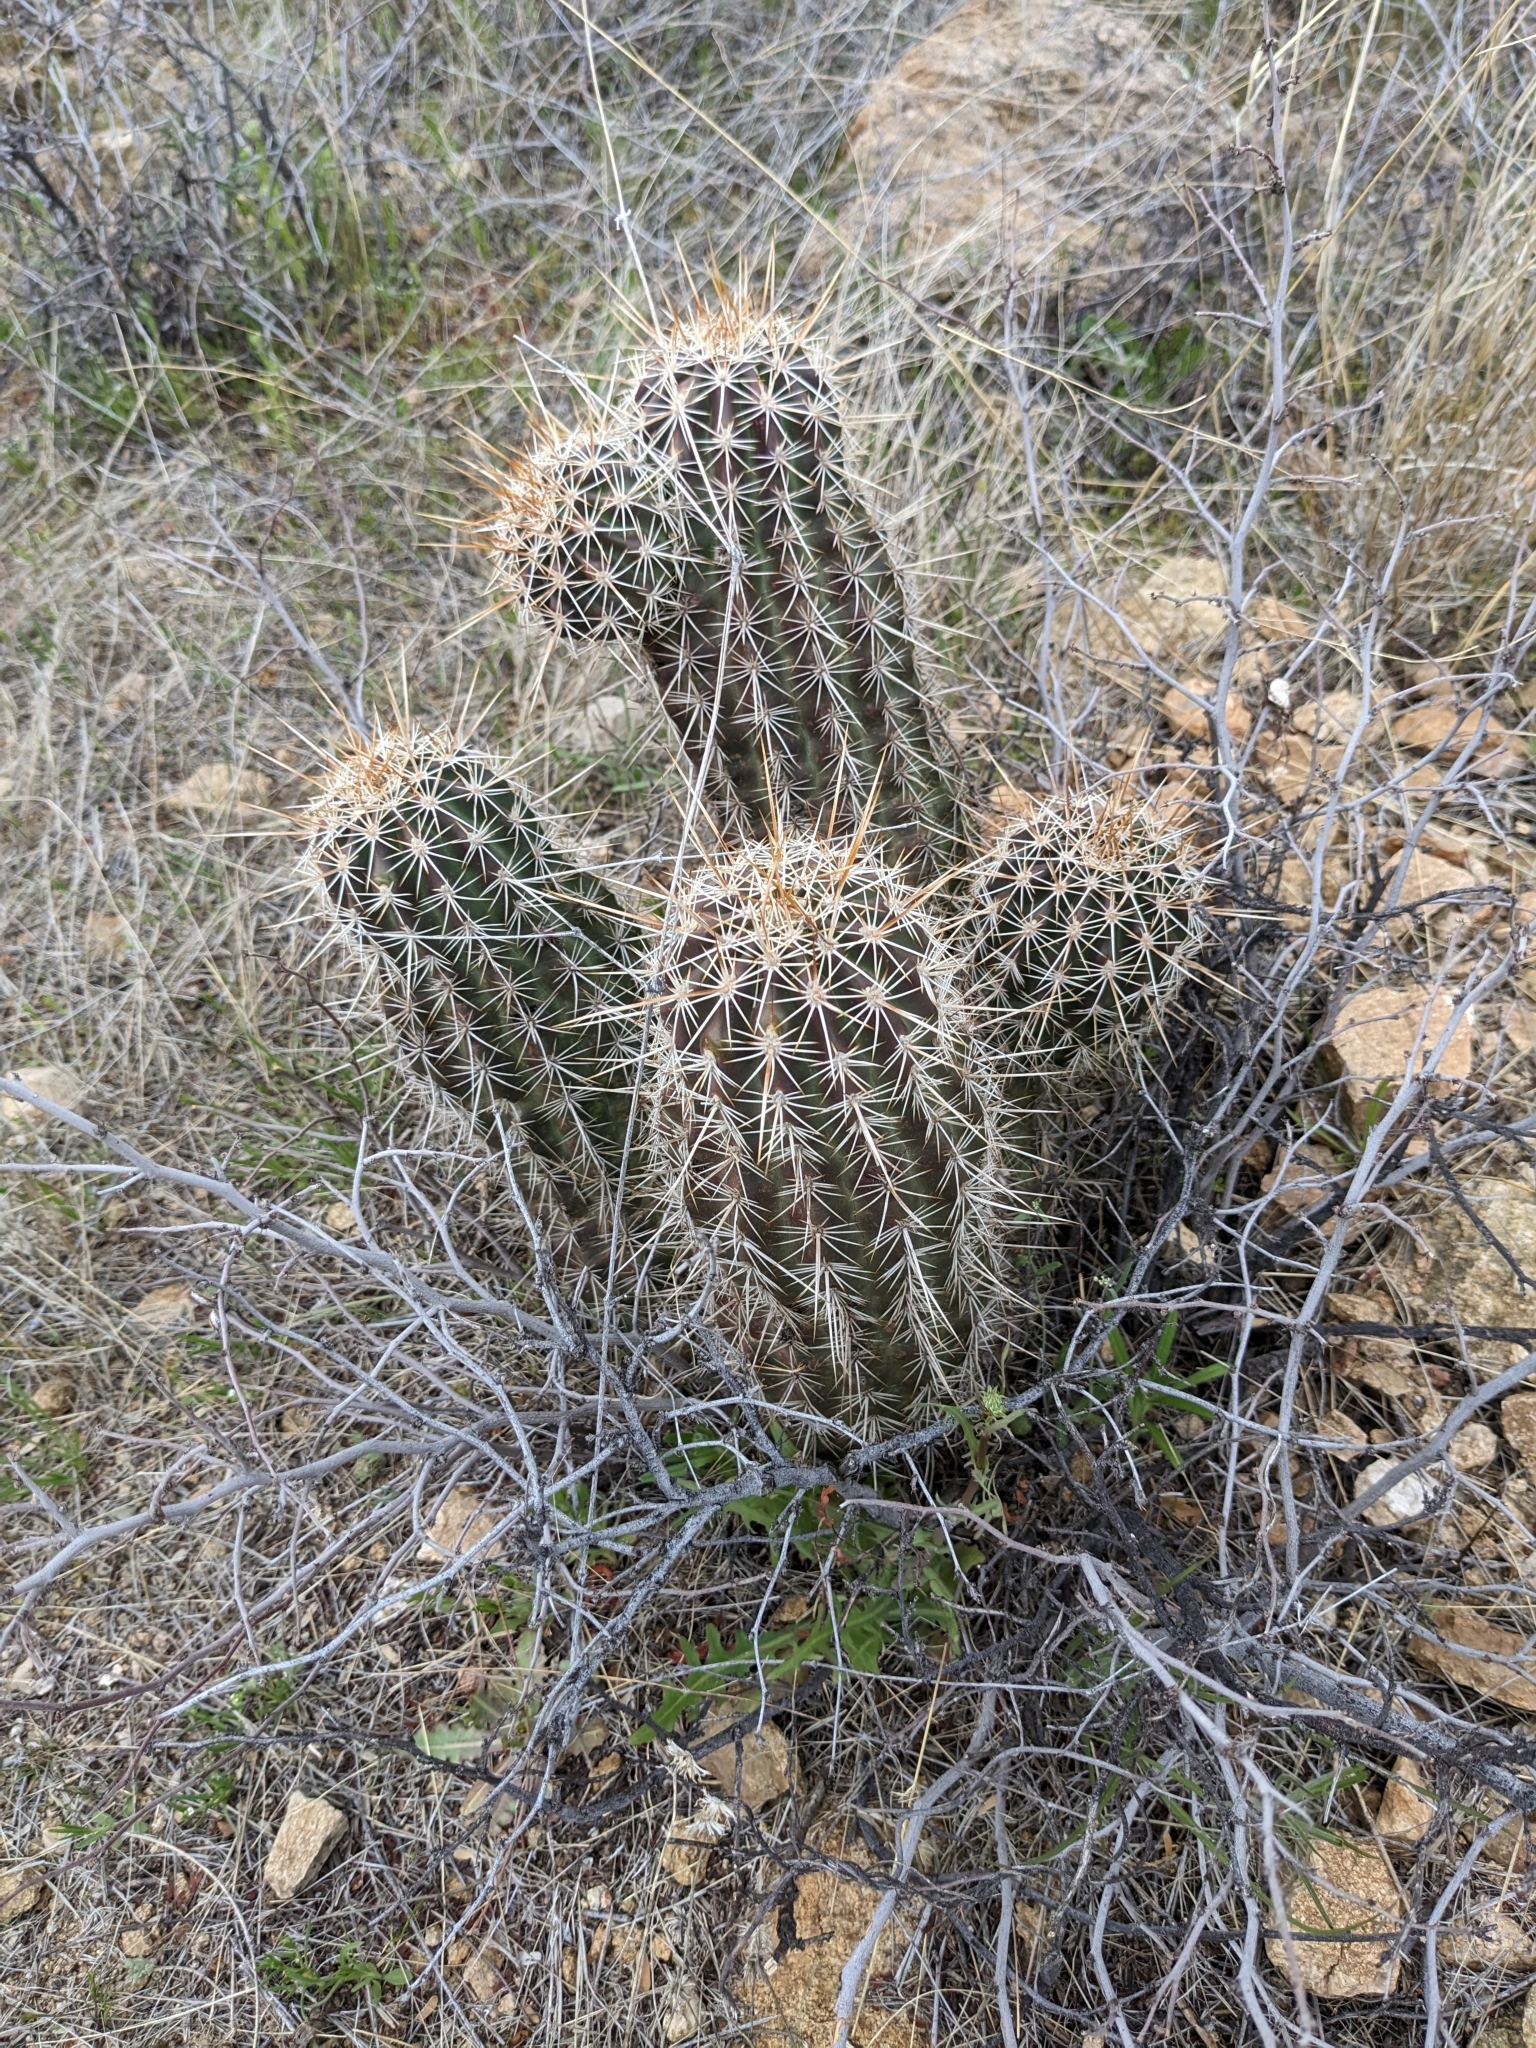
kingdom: Plantae
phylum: Tracheophyta
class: Magnoliopsida
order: Caryophyllales
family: Cactaceae
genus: Echinocereus
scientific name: Echinocereus fasciculatus
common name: Bundle hedgehog
